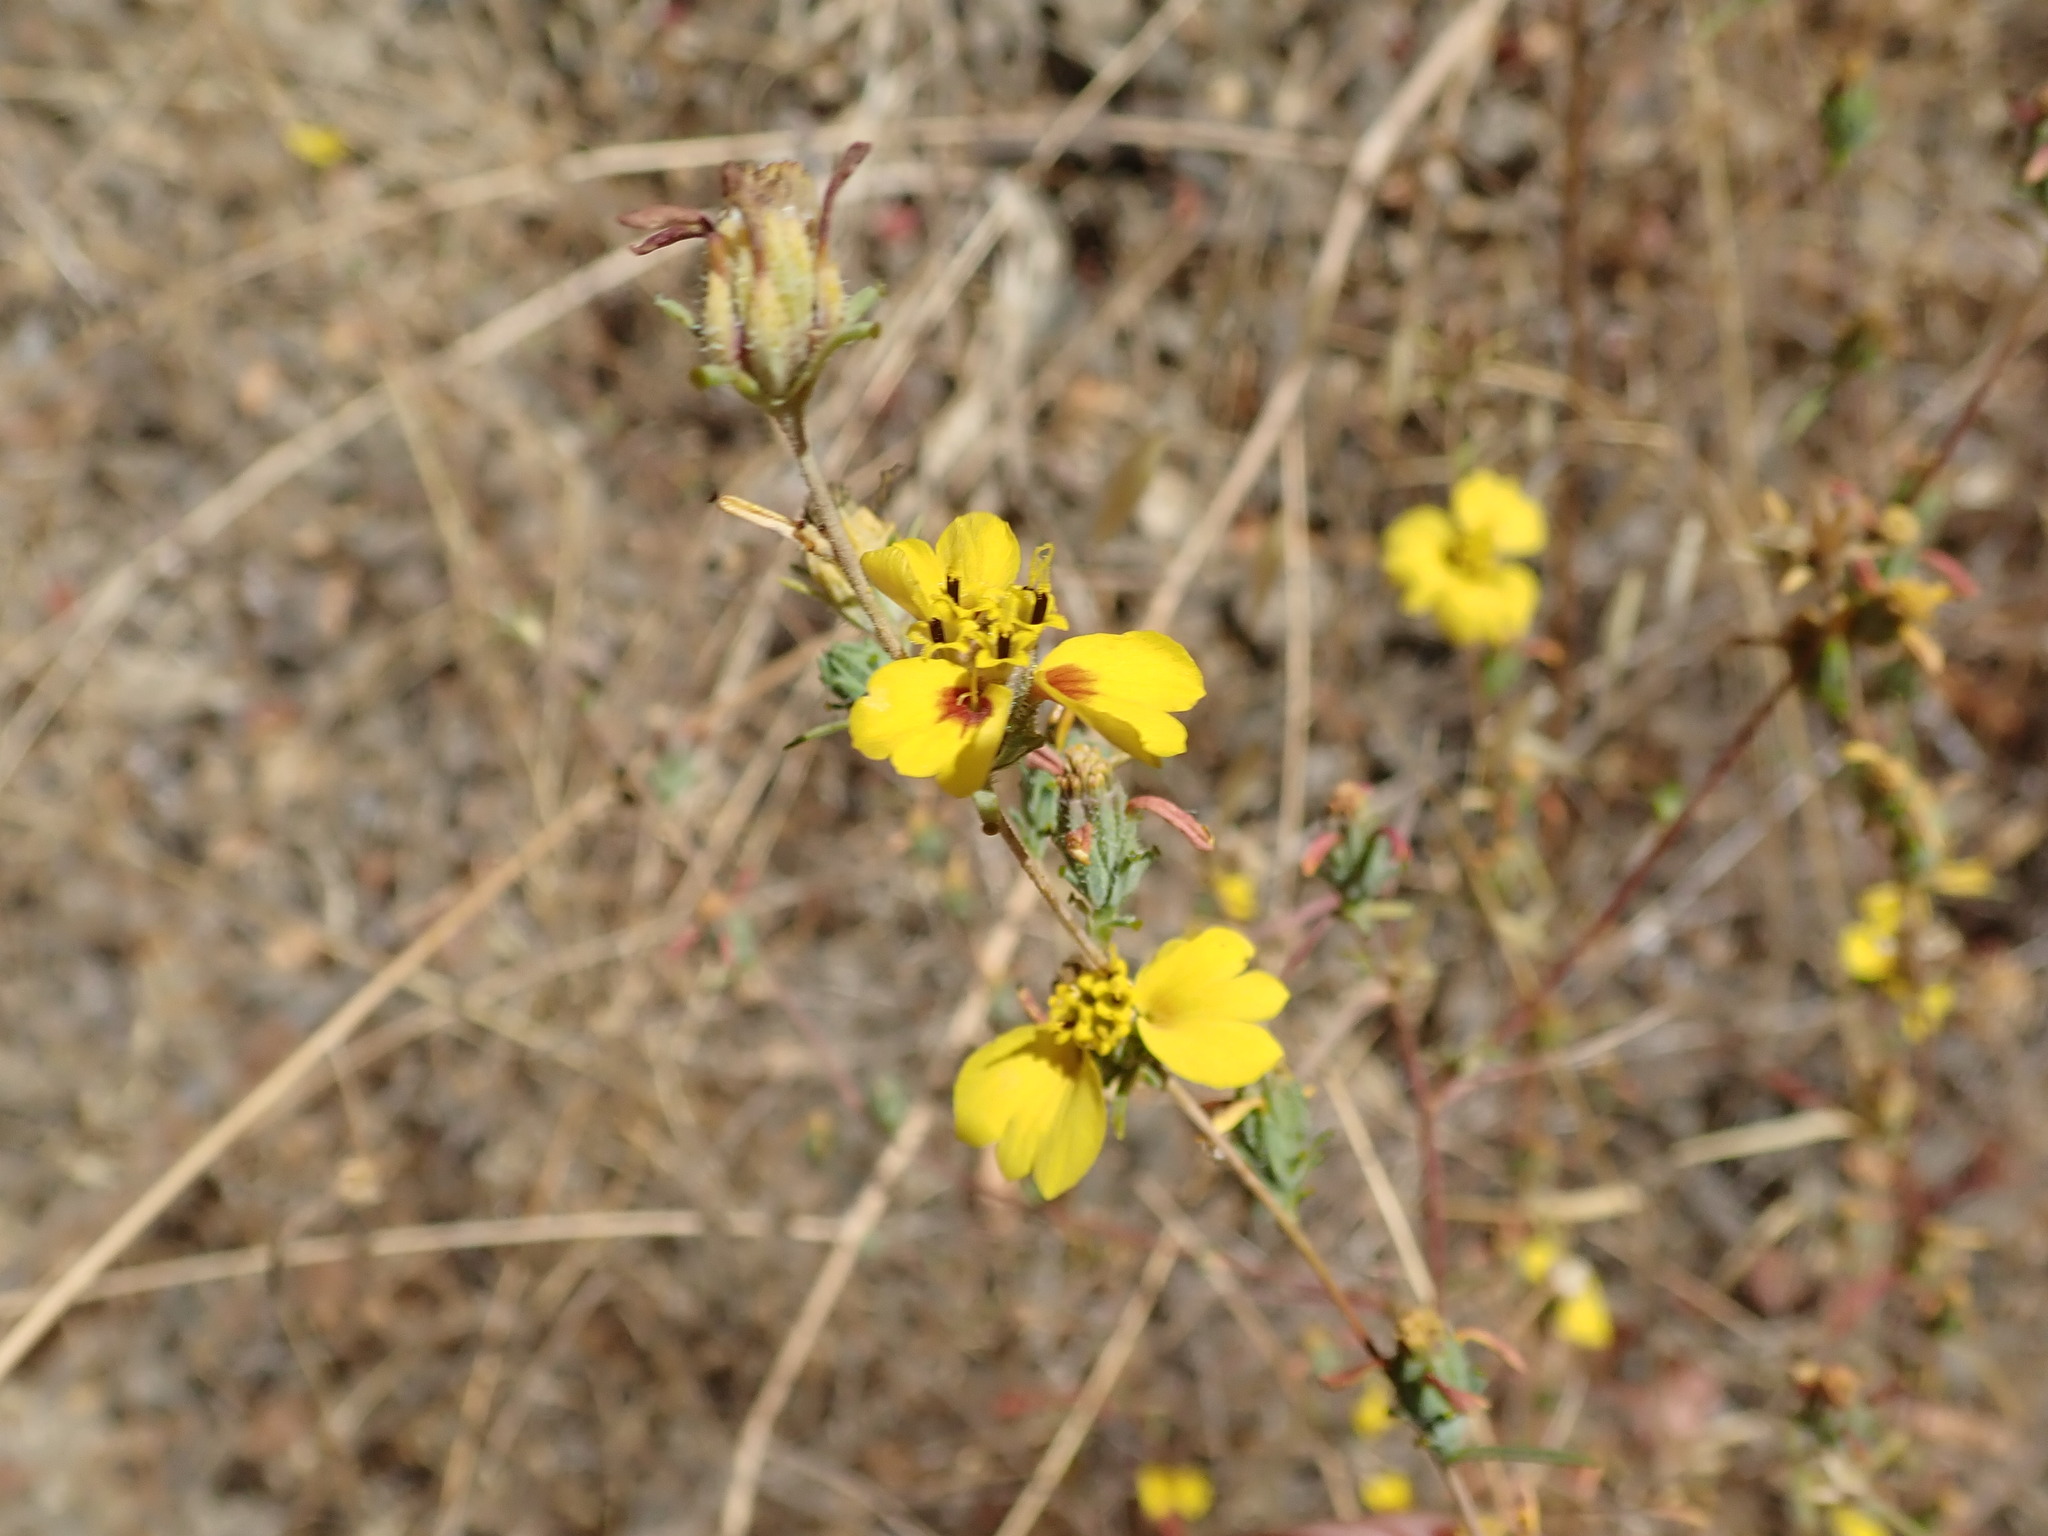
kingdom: Plantae
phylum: Tracheophyta
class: Magnoliopsida
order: Asterales
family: Asteraceae
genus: Calycadenia
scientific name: Calycadenia truncata
